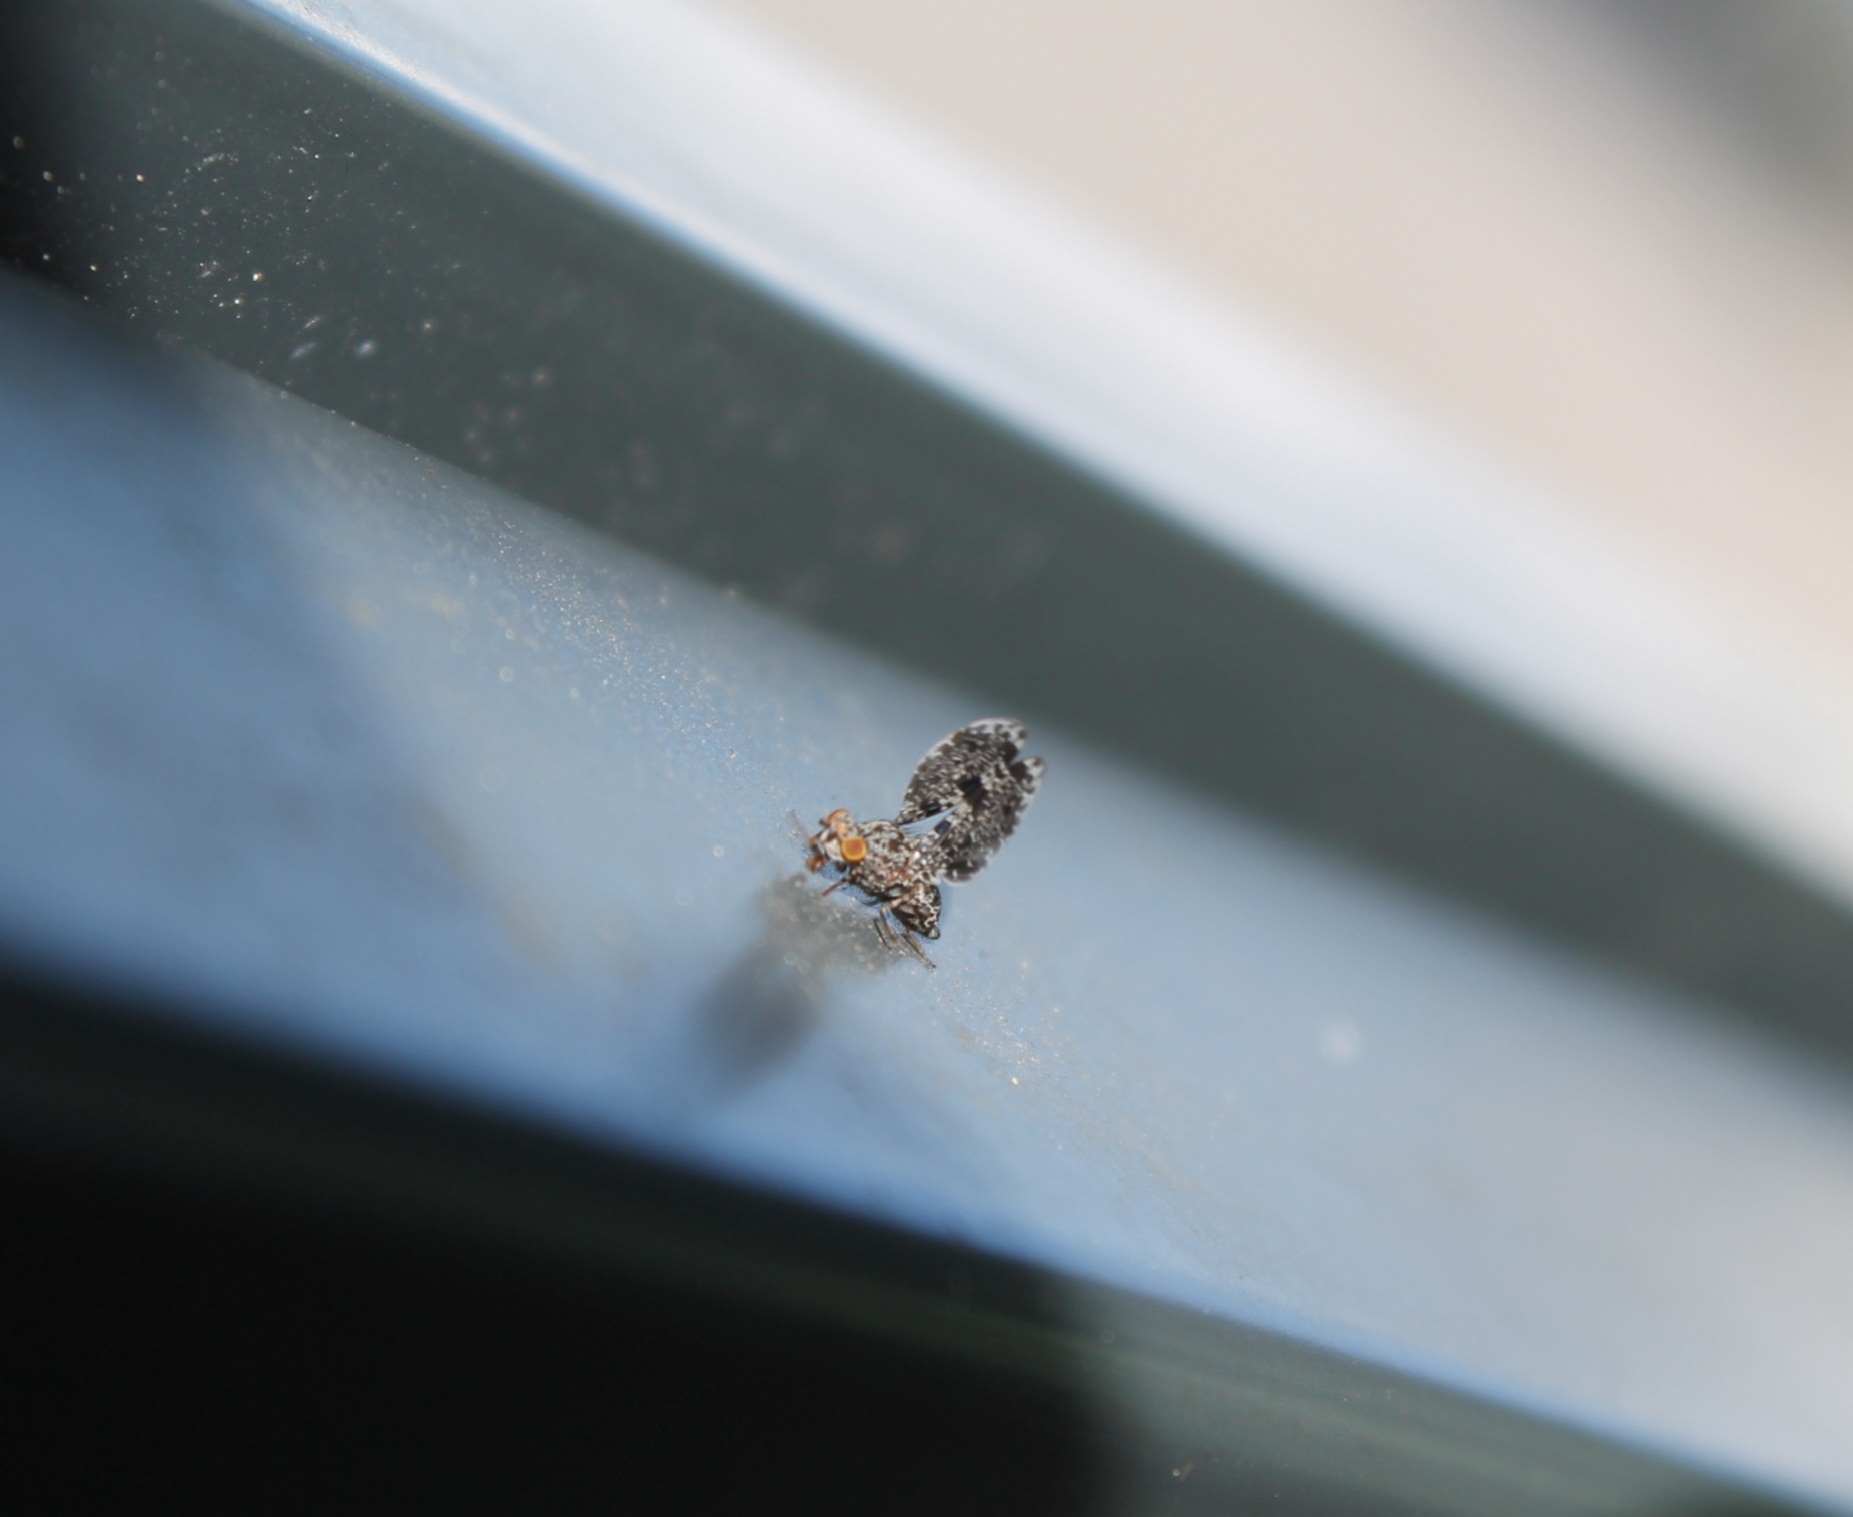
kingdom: Animalia
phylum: Arthropoda
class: Insecta
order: Diptera
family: Ulidiidae
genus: Callopistromyia
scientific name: Callopistromyia annulipes
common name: Peacock fly
